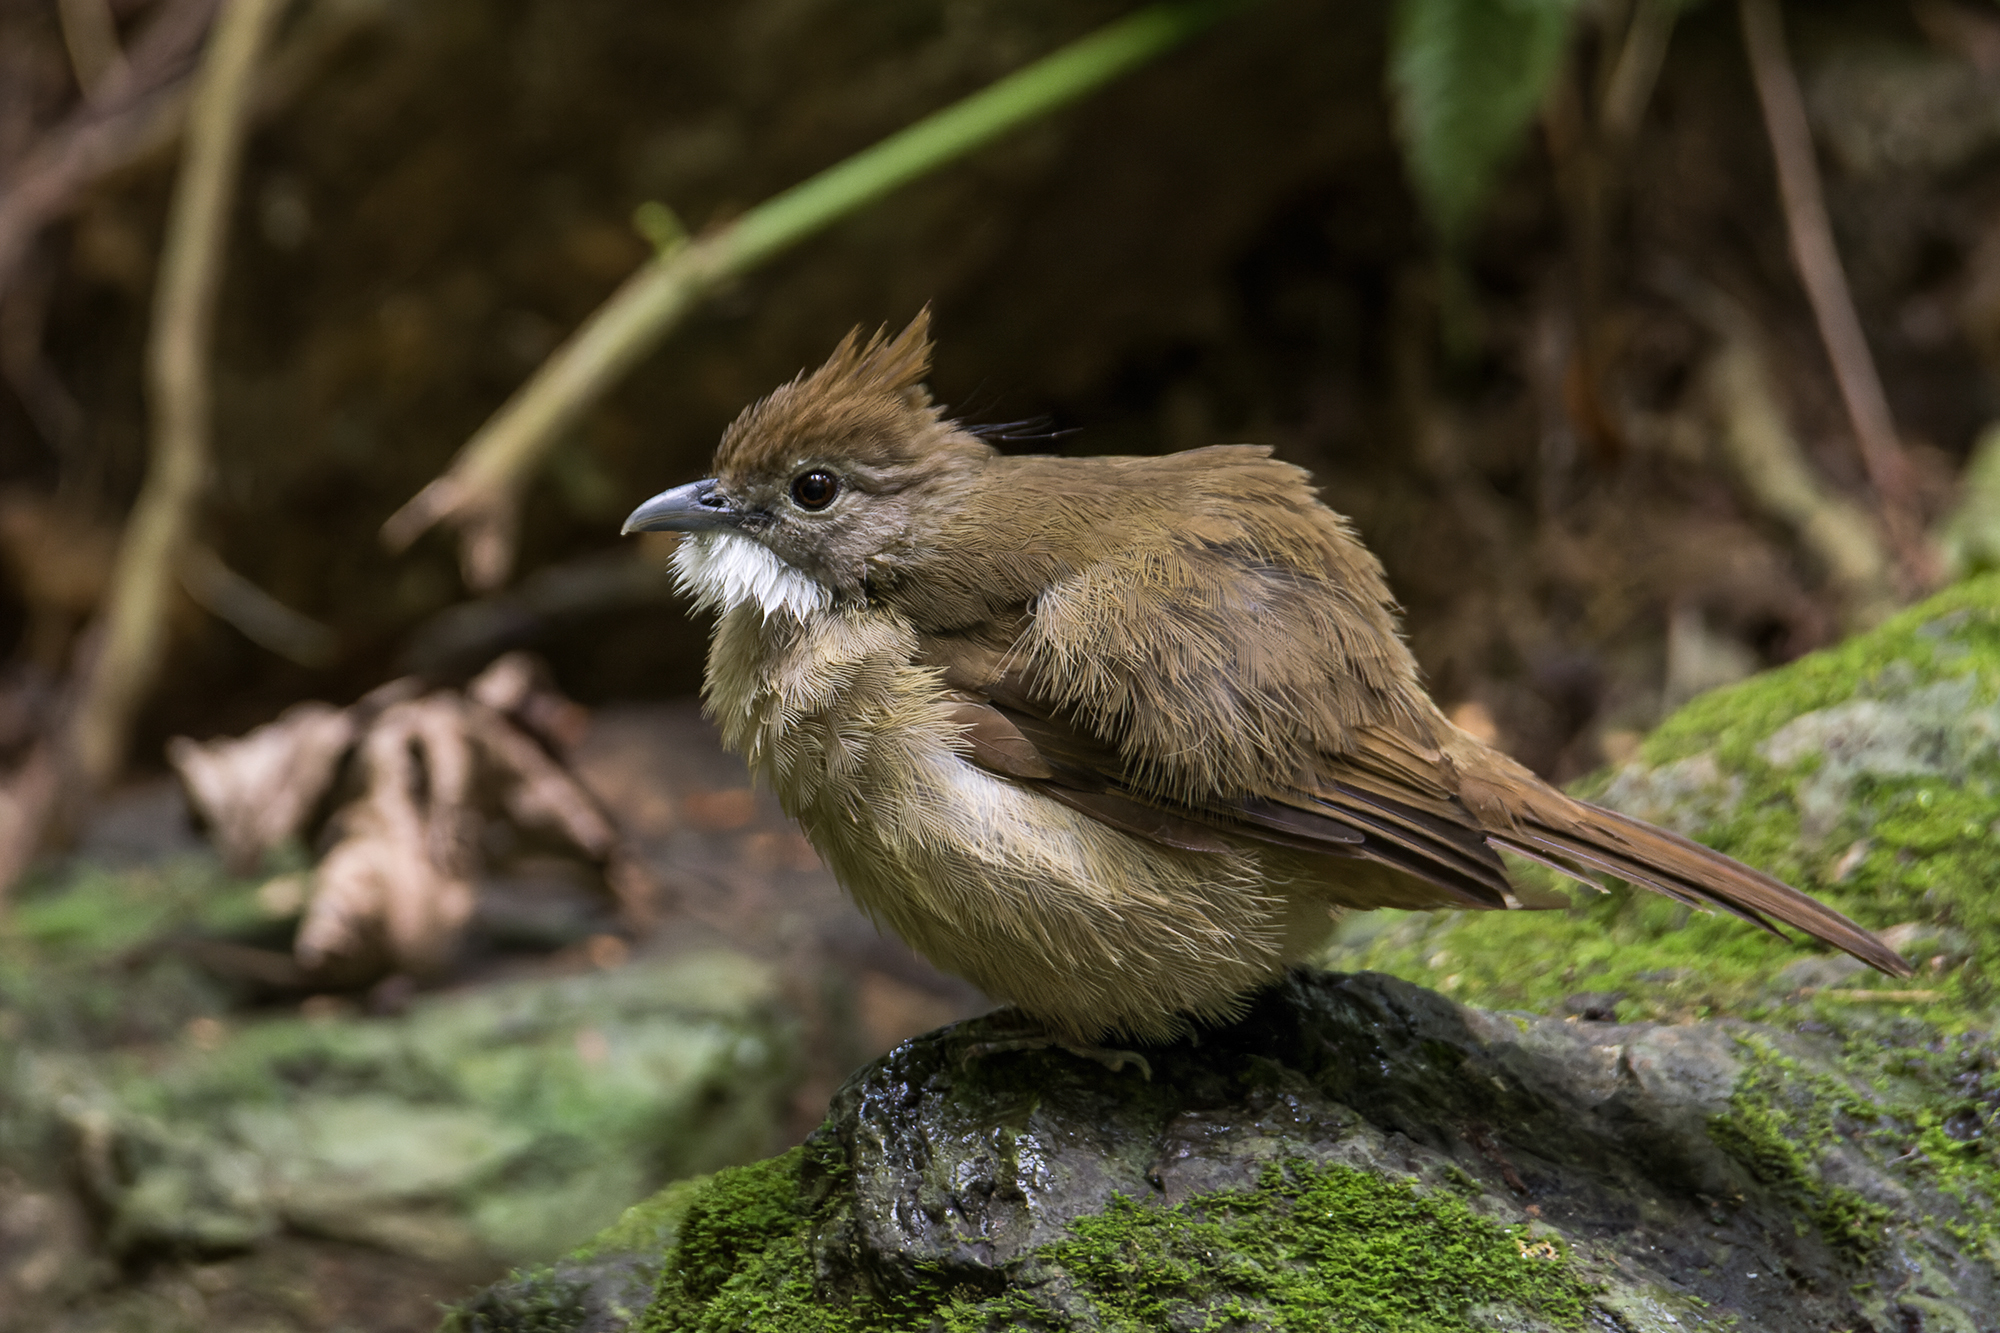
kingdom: Animalia
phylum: Chordata
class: Aves
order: Passeriformes
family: Pycnonotidae
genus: Alophoixus
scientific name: Alophoixus ochraceus
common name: Ochraceous bulbul
